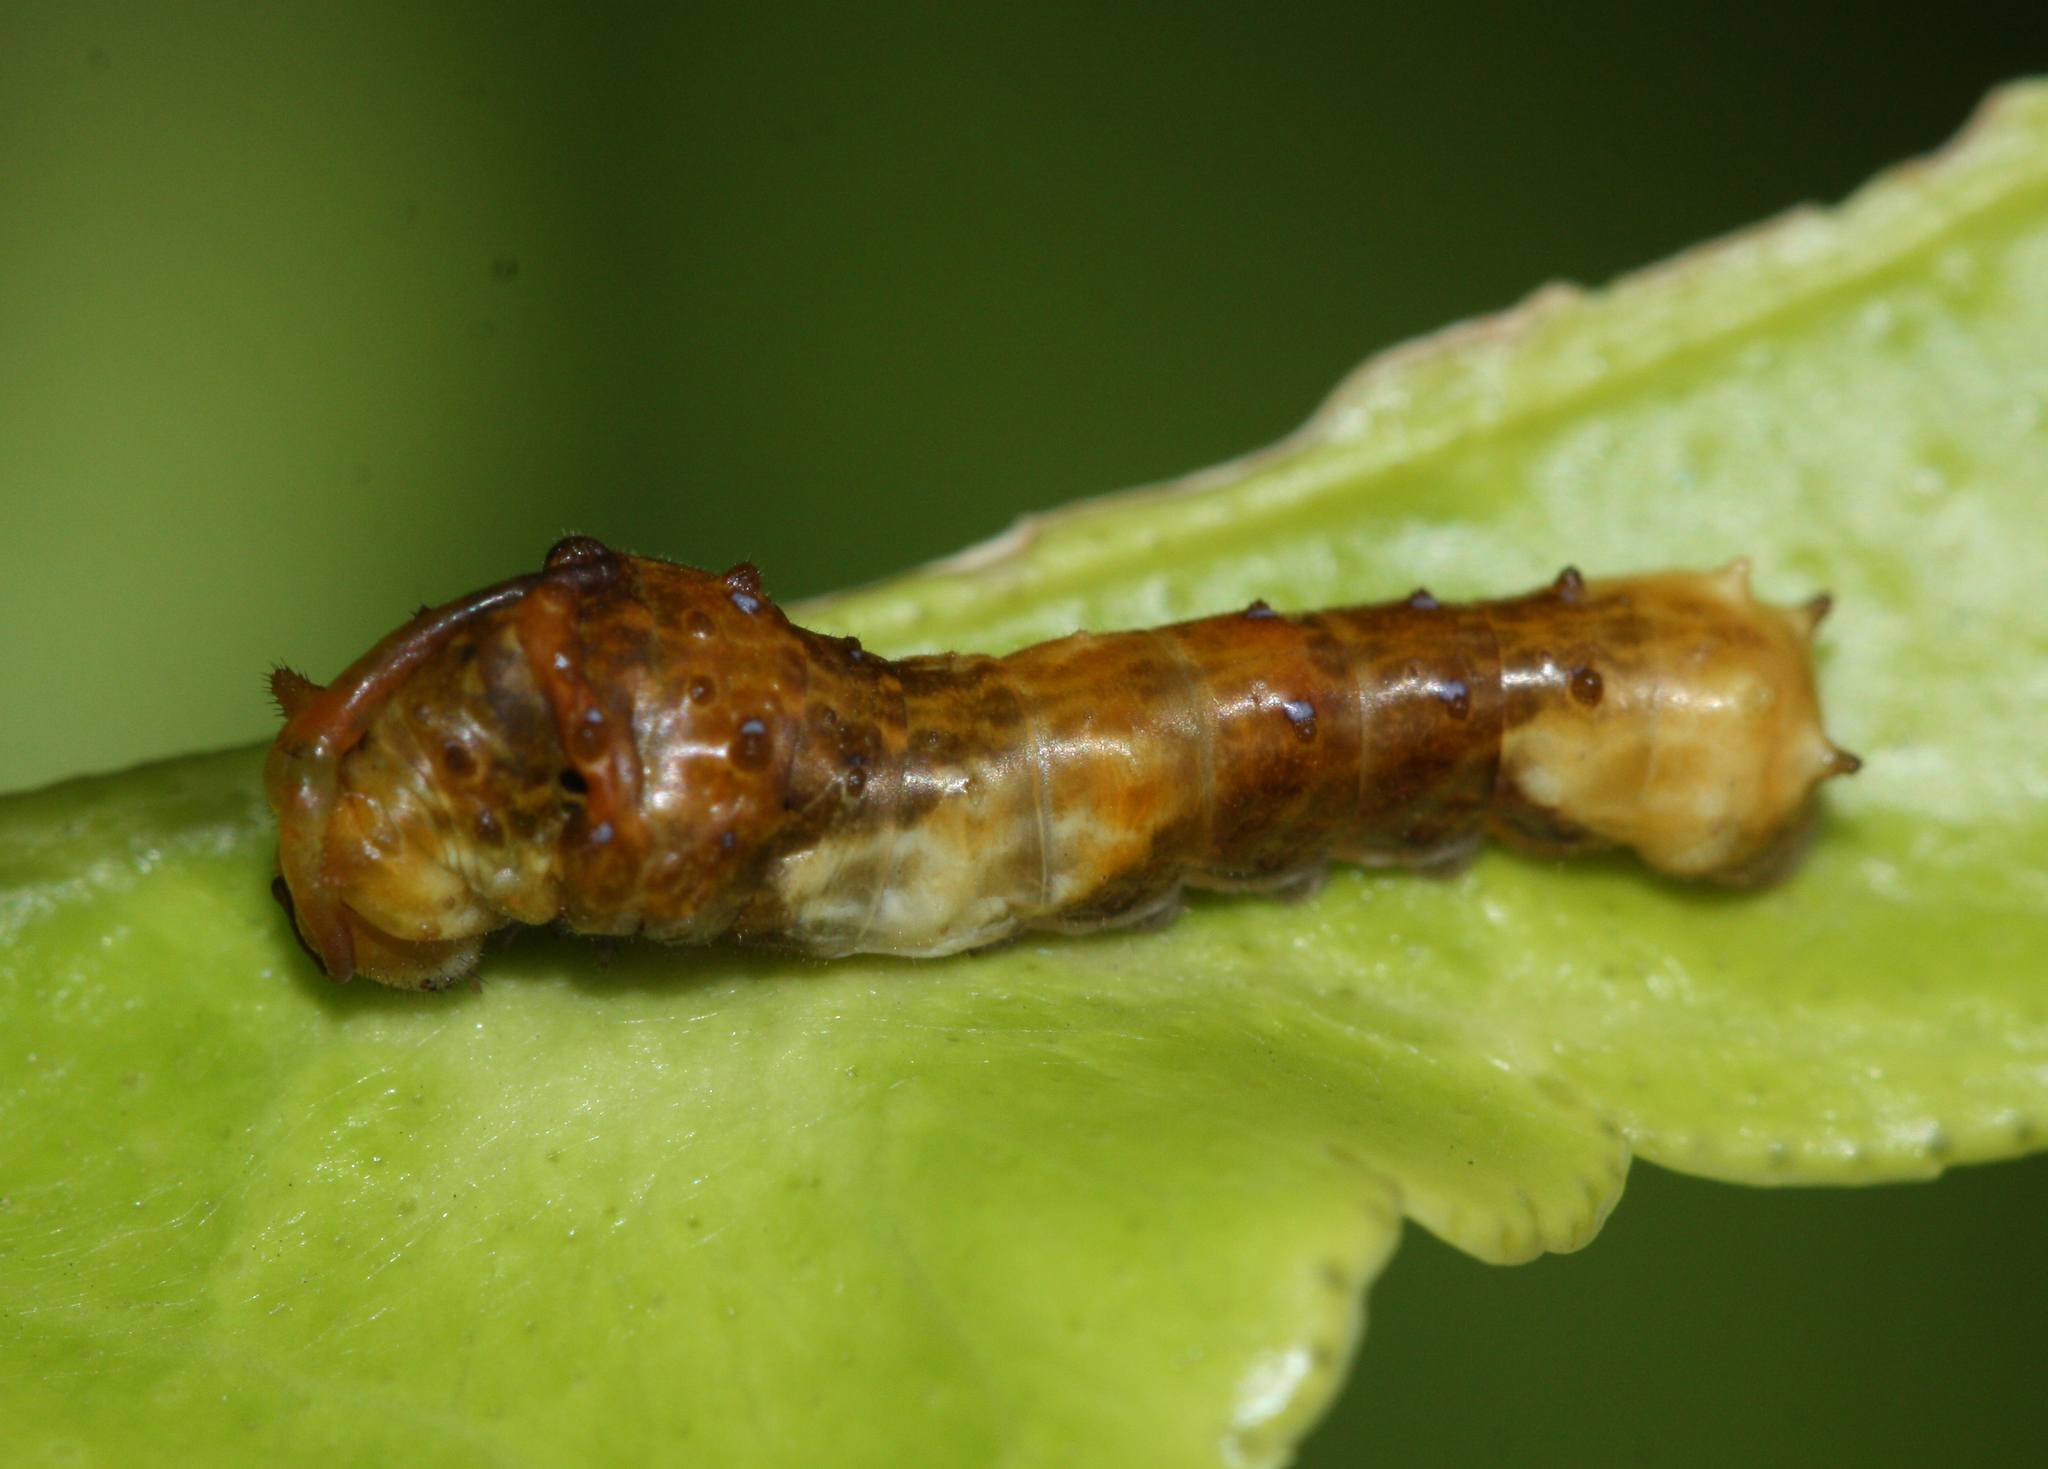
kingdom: Animalia
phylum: Arthropoda
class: Insecta
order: Lepidoptera
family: Papilionidae
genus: Papilio
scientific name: Papilio rumiko
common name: Western giant swallowtail
